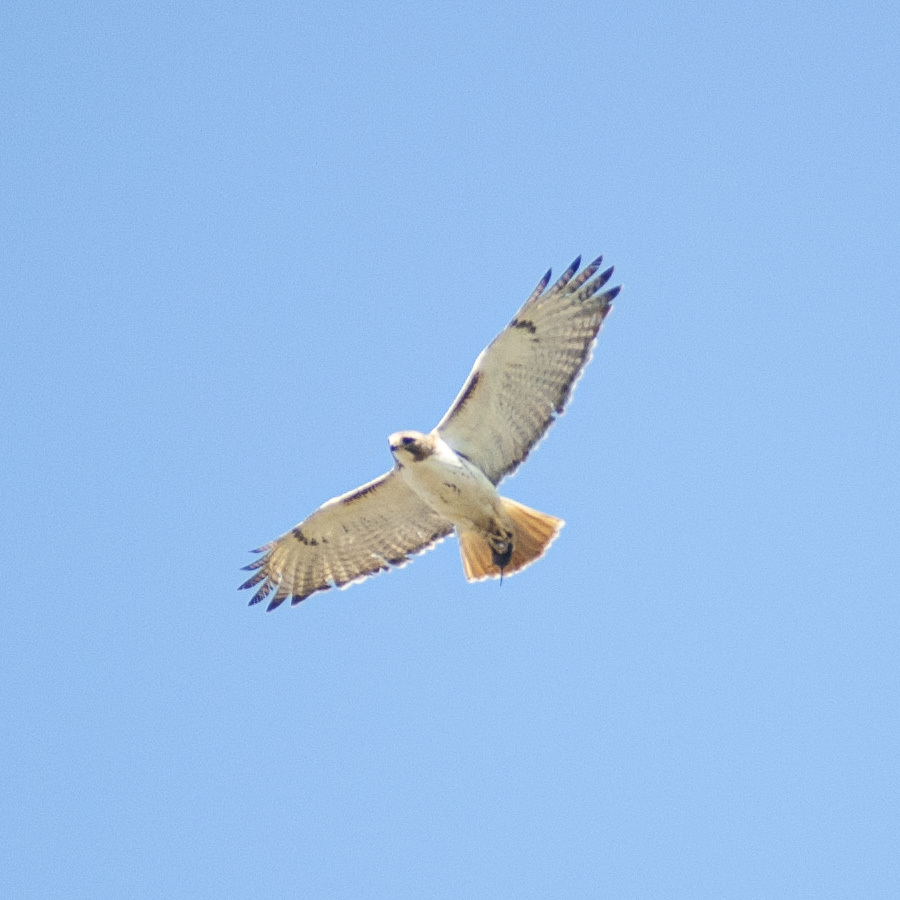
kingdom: Animalia
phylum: Chordata
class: Aves
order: Accipitriformes
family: Accipitridae
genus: Buteo
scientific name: Buteo jamaicensis
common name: Red-tailed hawk
